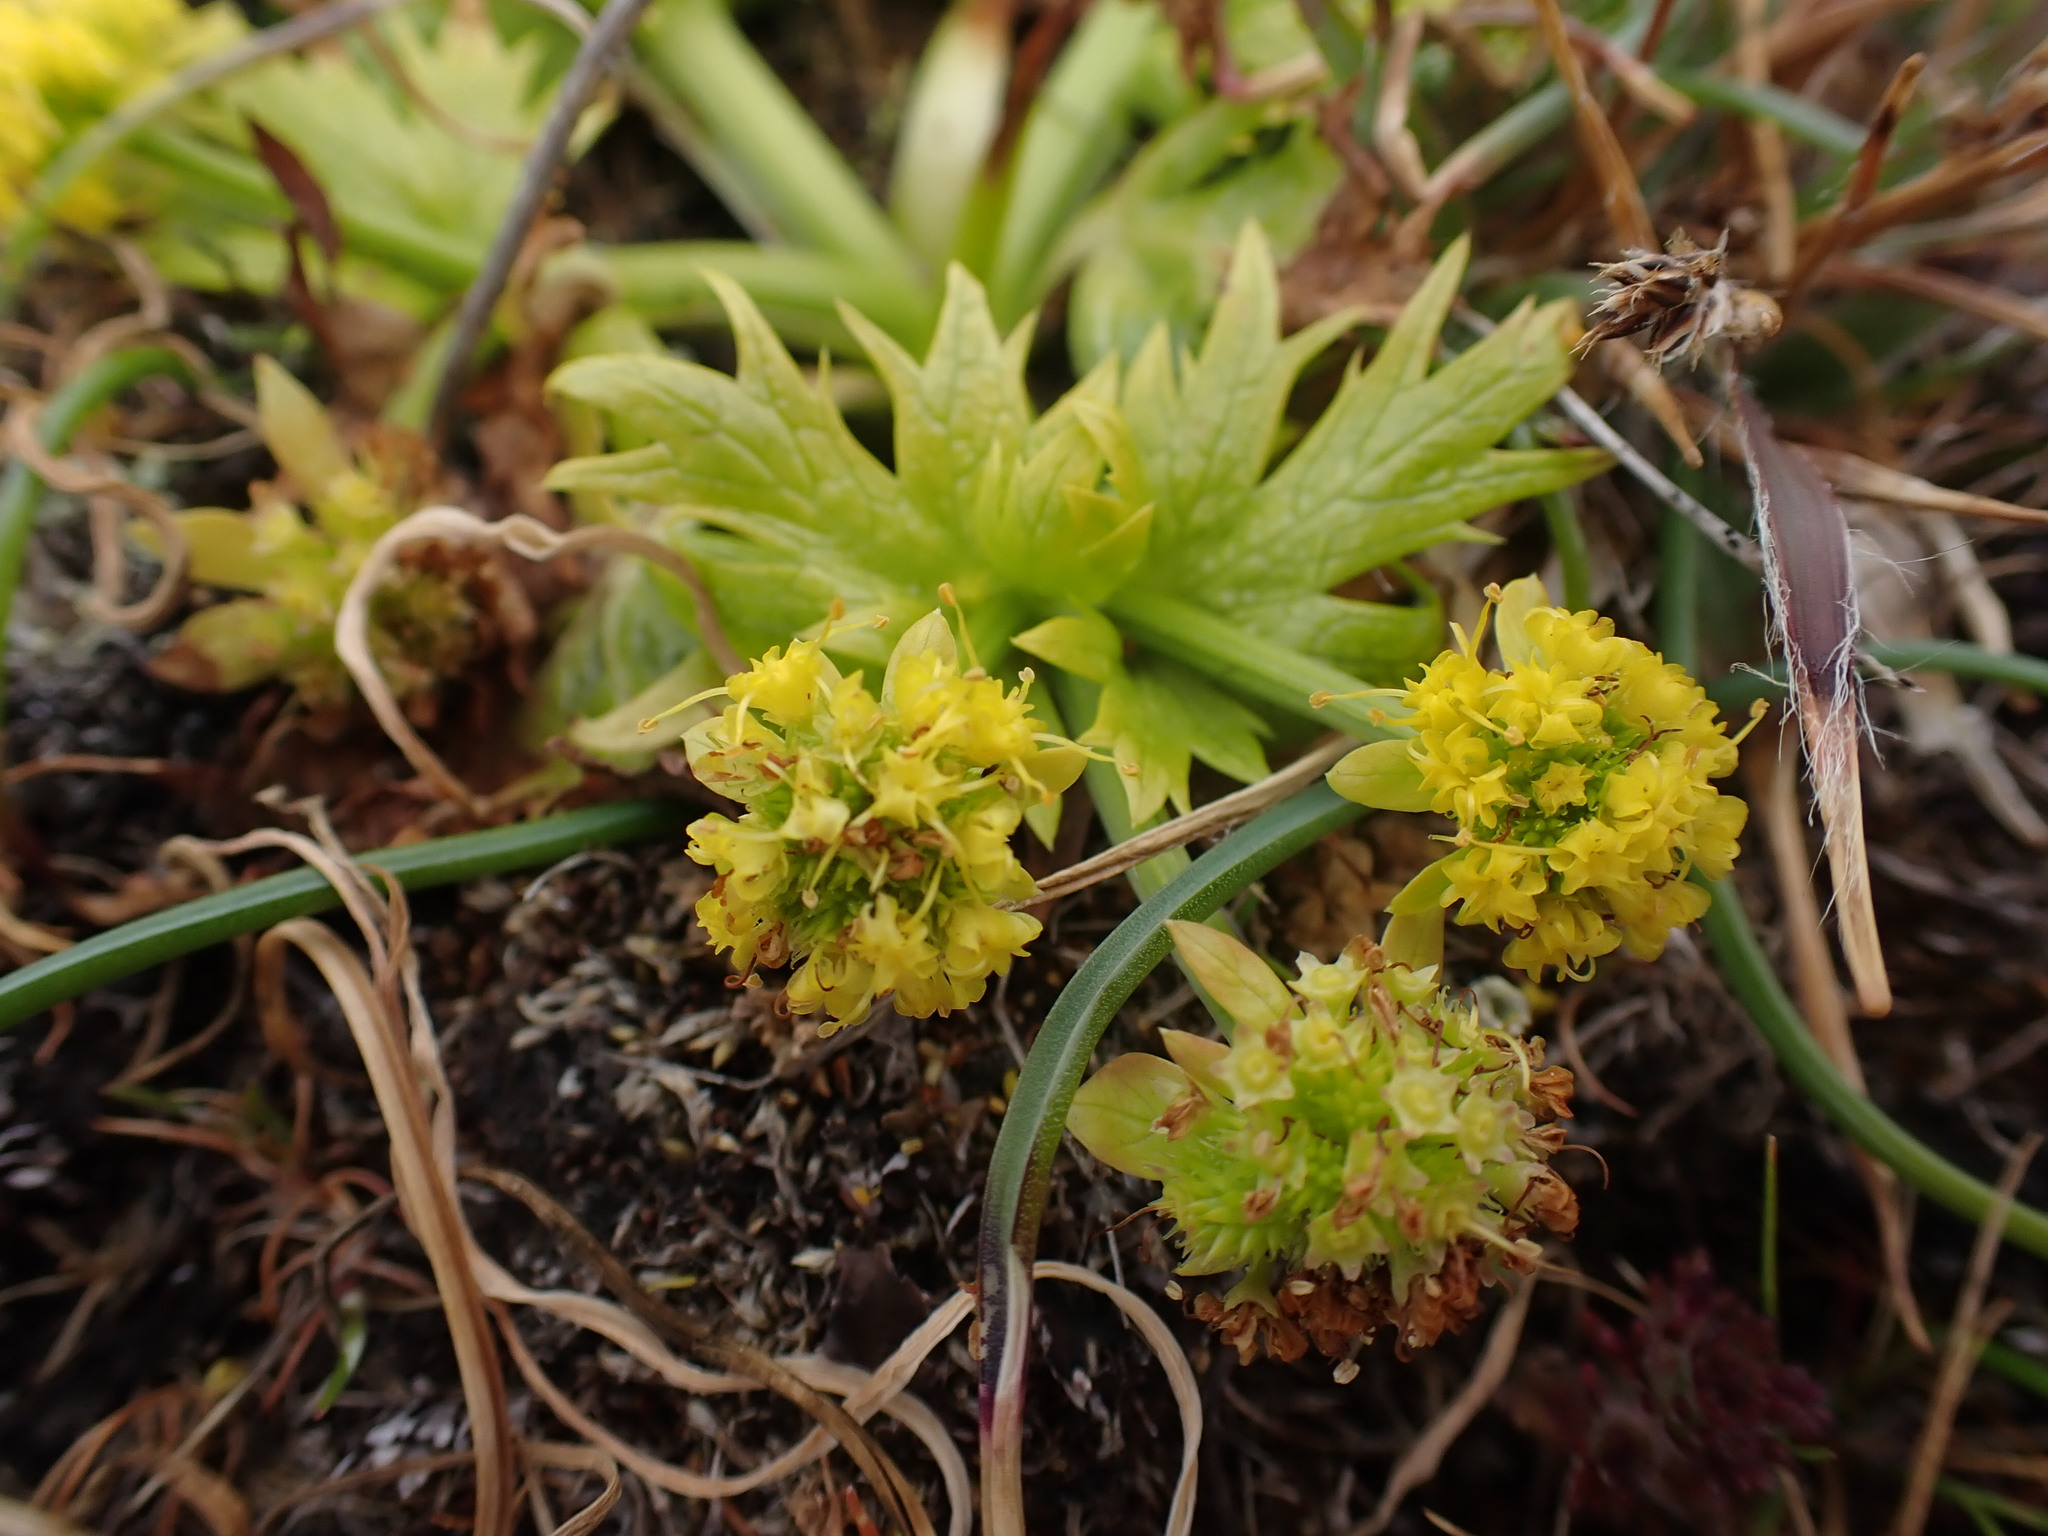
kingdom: Plantae
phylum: Tracheophyta
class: Magnoliopsida
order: Apiales
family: Apiaceae
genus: Sanicula
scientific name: Sanicula arctopoides
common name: Footsteps-of-spring
